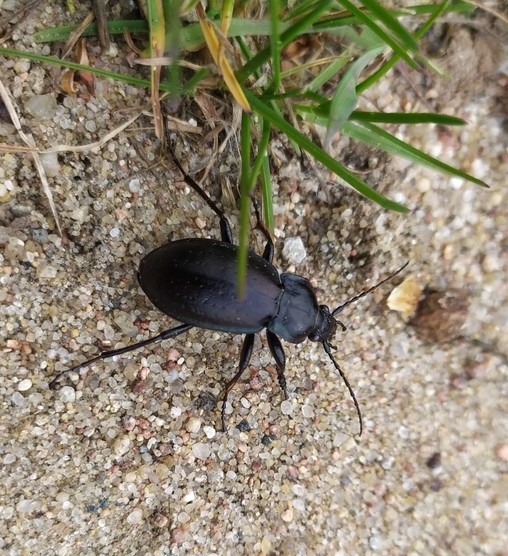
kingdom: Animalia
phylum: Arthropoda
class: Insecta
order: Coleoptera
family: Carabidae
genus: Carabus
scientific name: Carabus nemoralis
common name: European ground beetle
